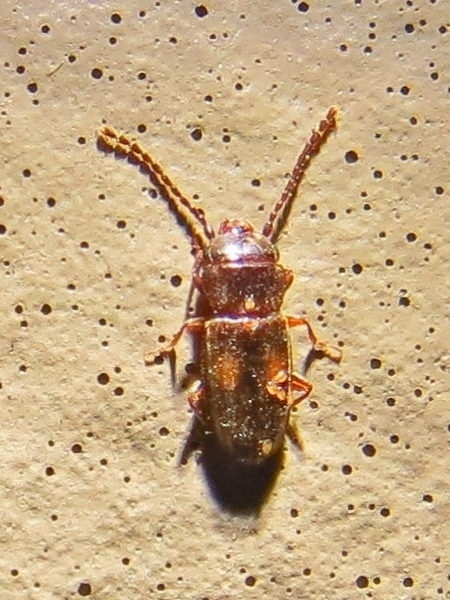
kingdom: Animalia
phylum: Arthropoda
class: Insecta
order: Coleoptera
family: Laemophloeidae
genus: Laemophloeus
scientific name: Laemophloeus biguttatus
